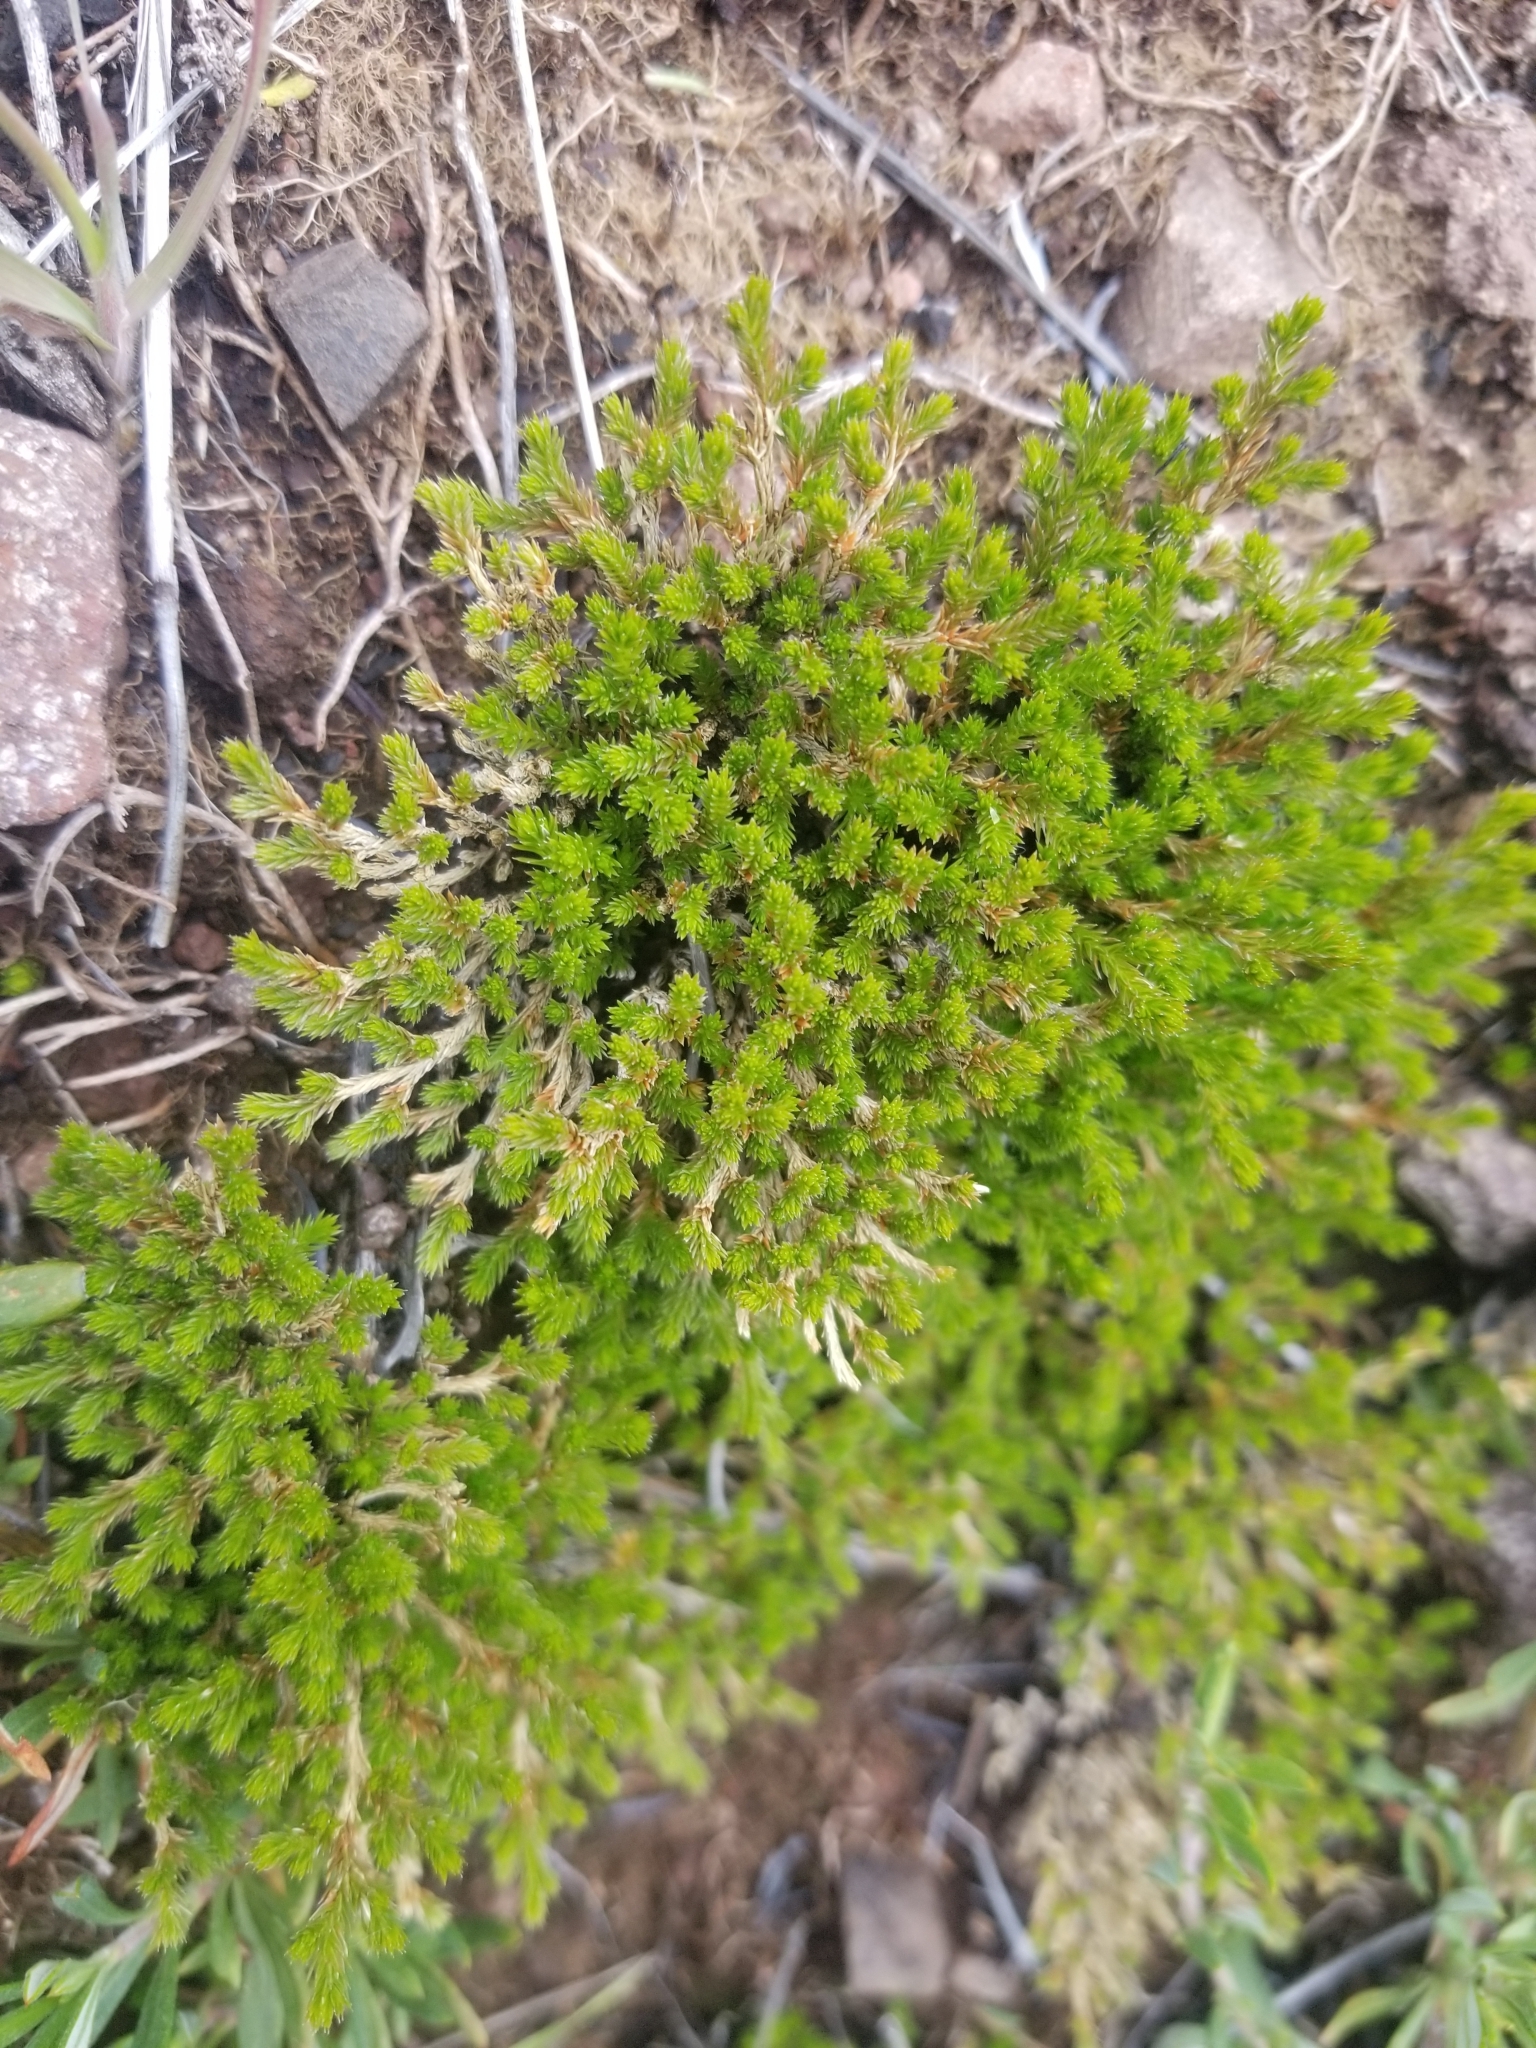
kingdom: Plantae
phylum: Tracheophyta
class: Lycopodiopsida
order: Selaginellales
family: Selaginellaceae
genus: Selaginella
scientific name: Selaginella bigelovii
